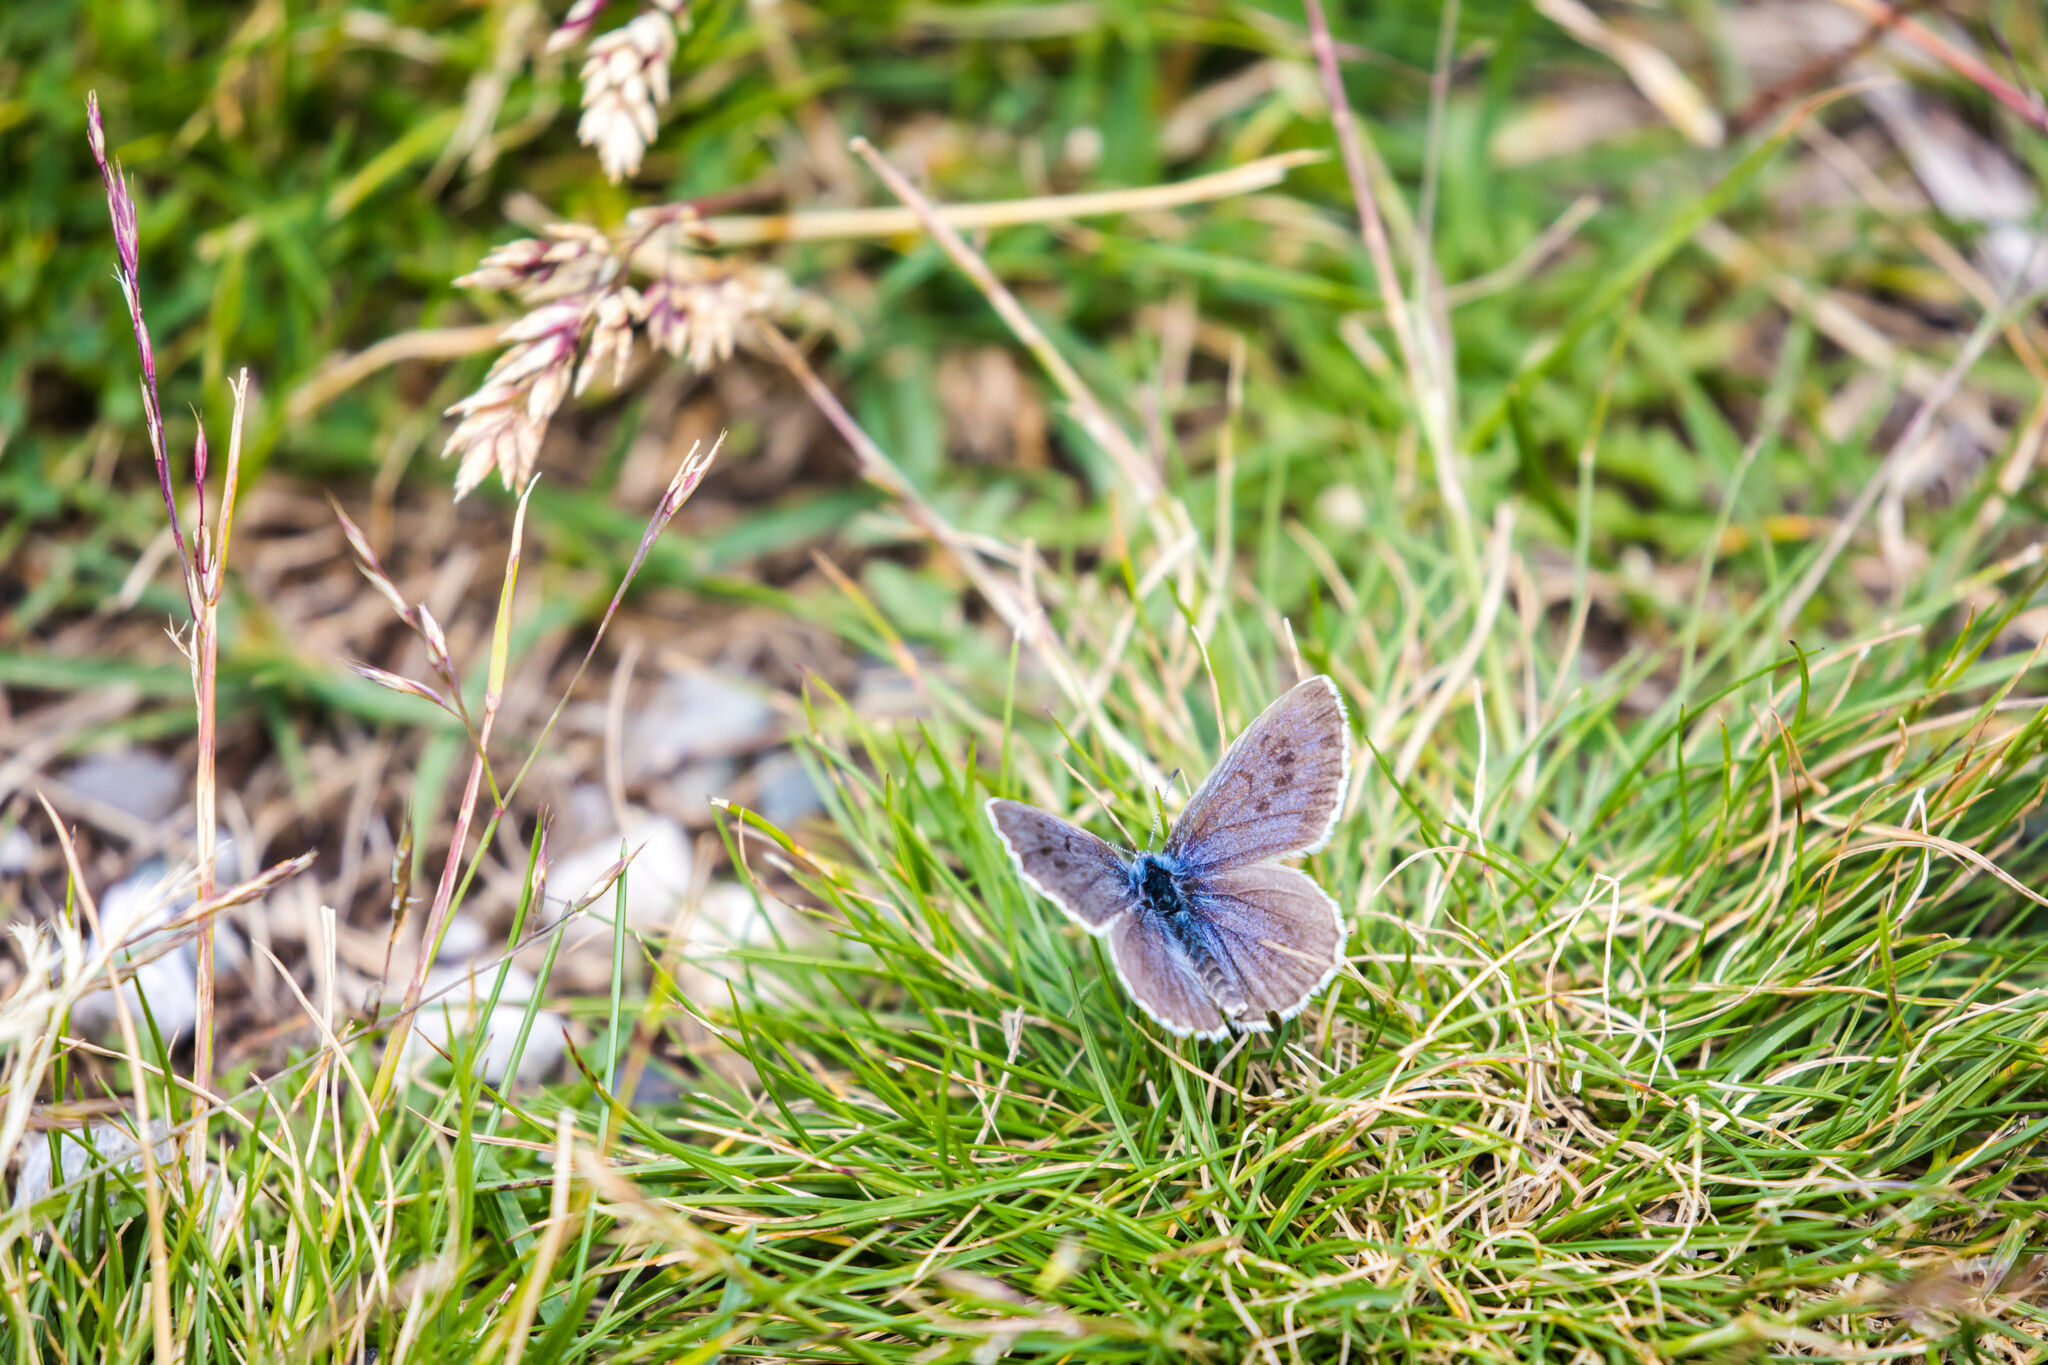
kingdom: Animalia
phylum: Arthropoda
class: Insecta
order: Lepidoptera
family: Lycaenidae
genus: Maculinea
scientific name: Maculinea arion
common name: Large blue
